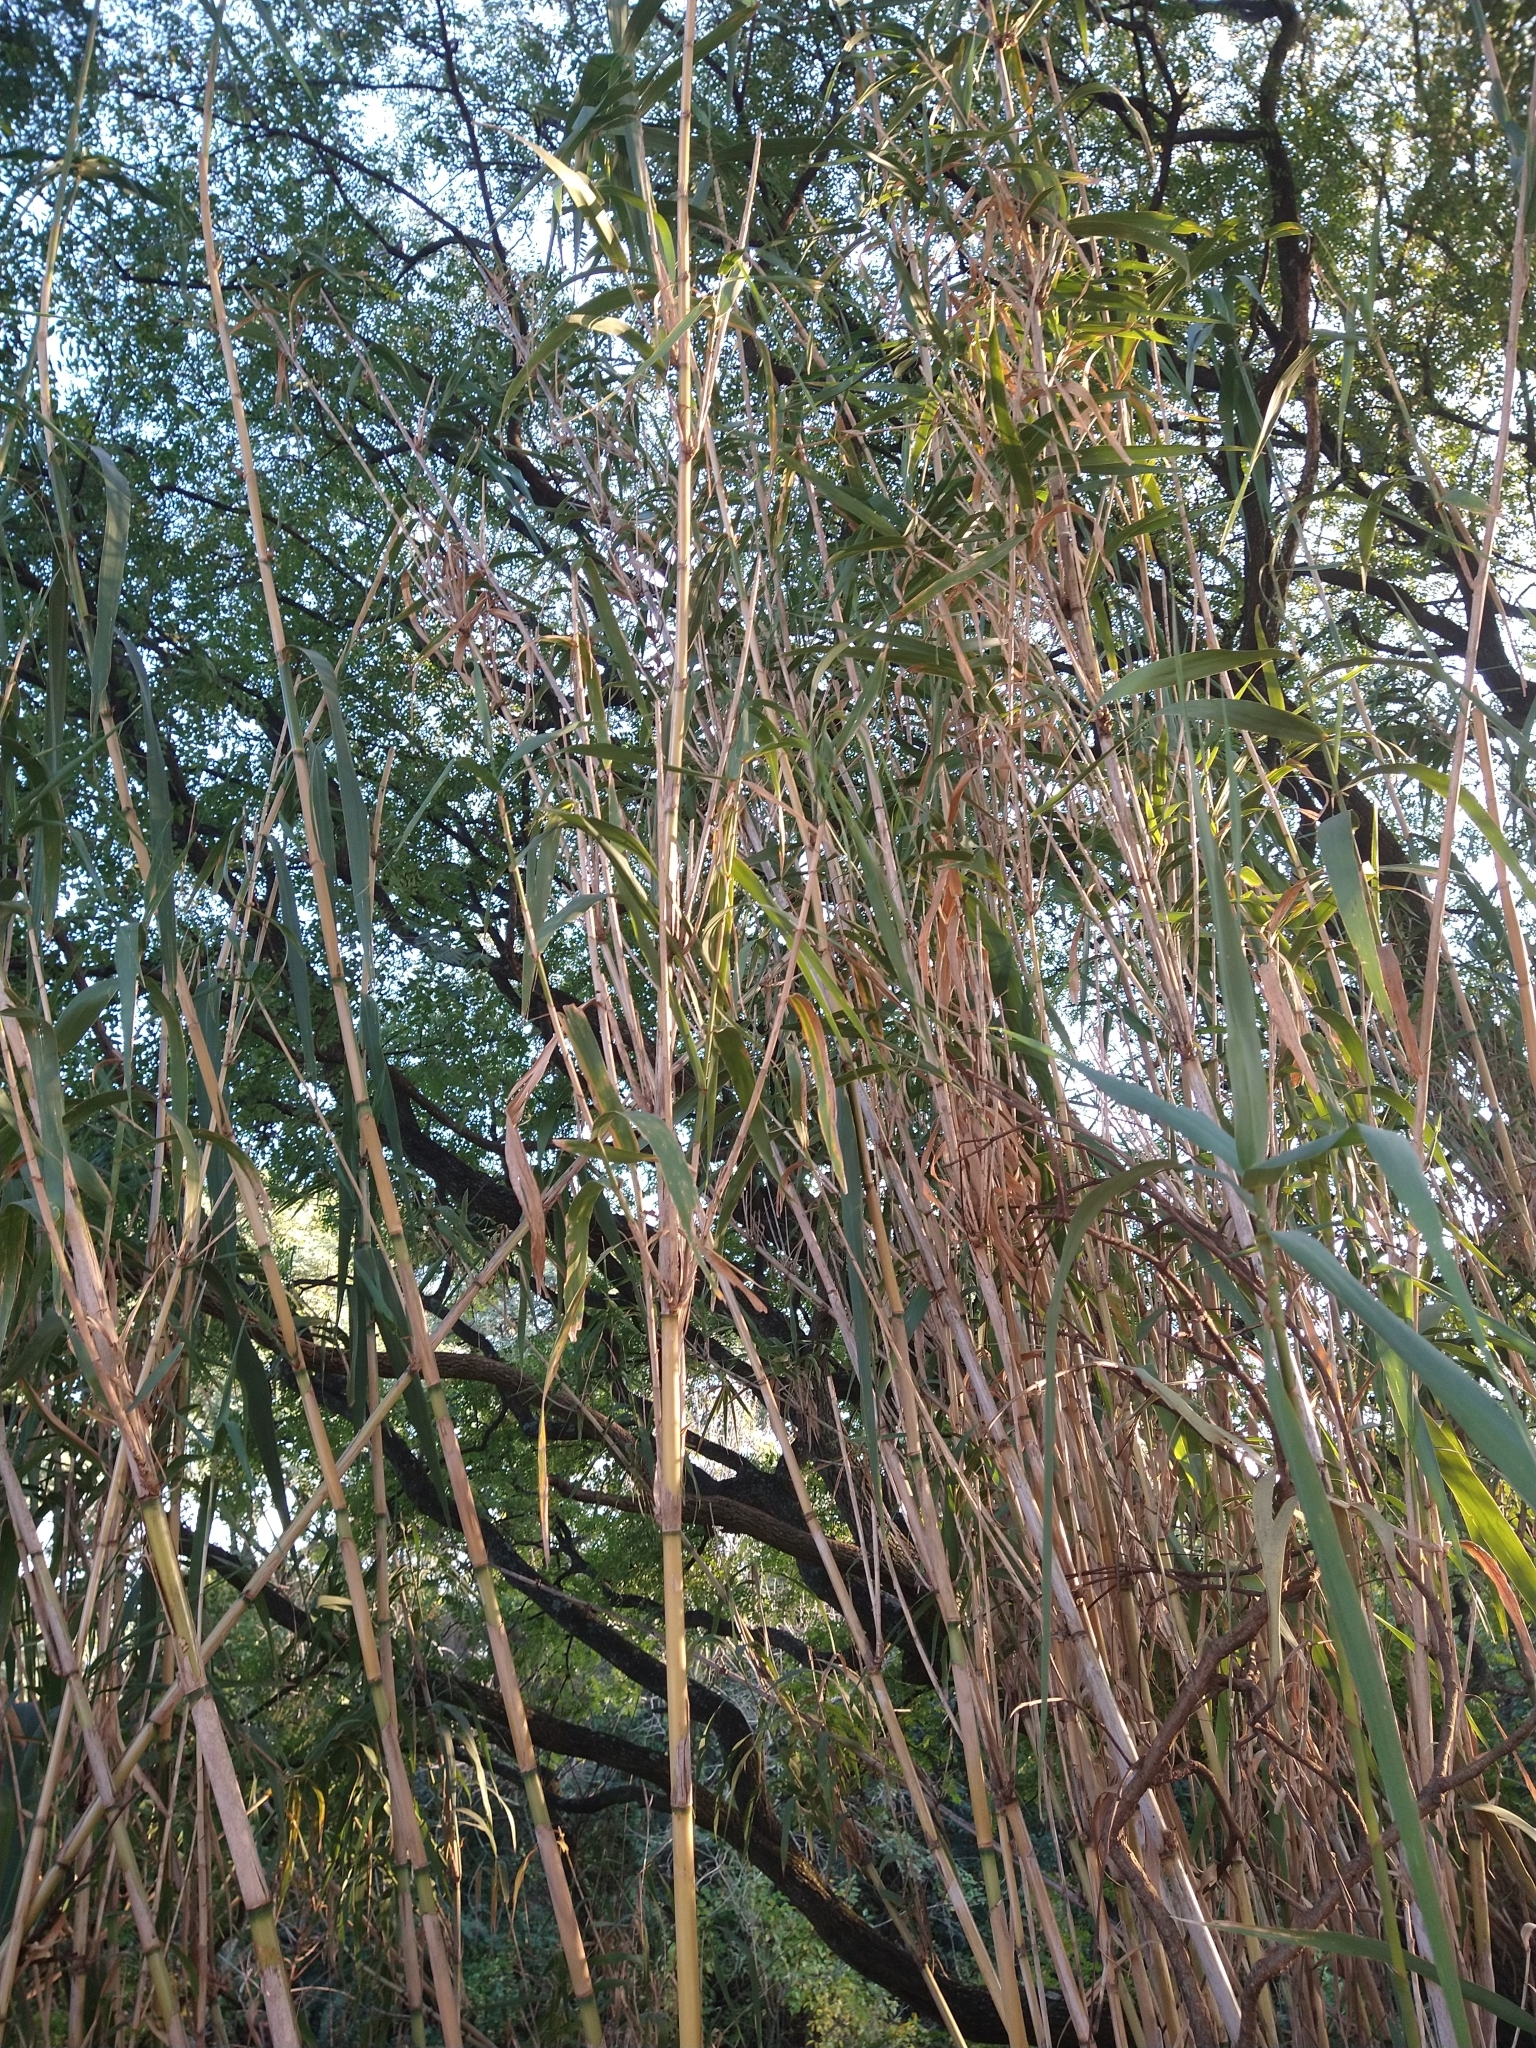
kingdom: Plantae
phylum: Tracheophyta
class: Liliopsida
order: Poales
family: Poaceae
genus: Arundo
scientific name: Arundo donax
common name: Giant reed
